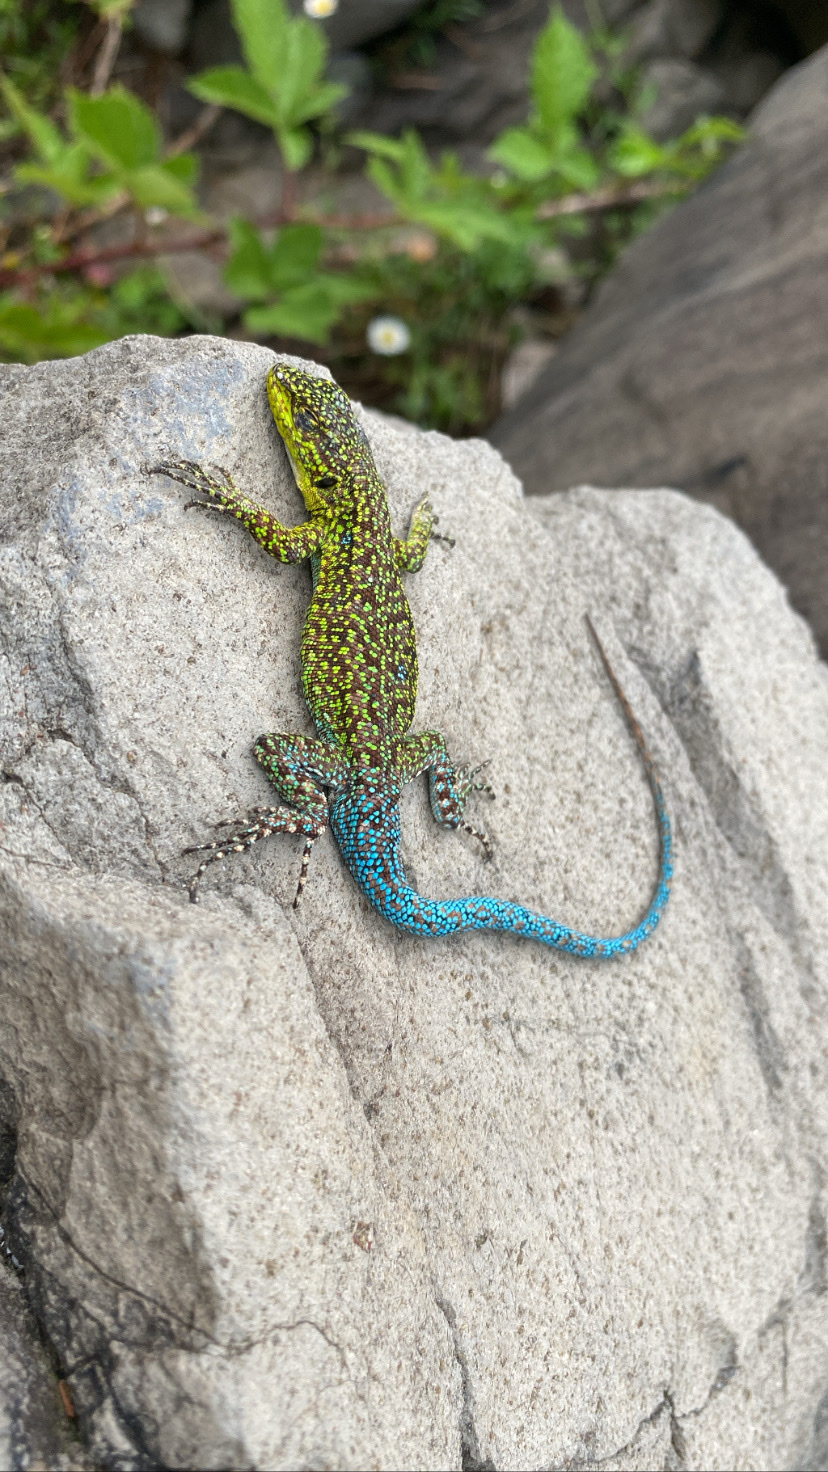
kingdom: Animalia
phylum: Chordata
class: Squamata
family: Liolaemidae
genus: Liolaemus
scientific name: Liolaemus tenuis
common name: Thin tree iguana
